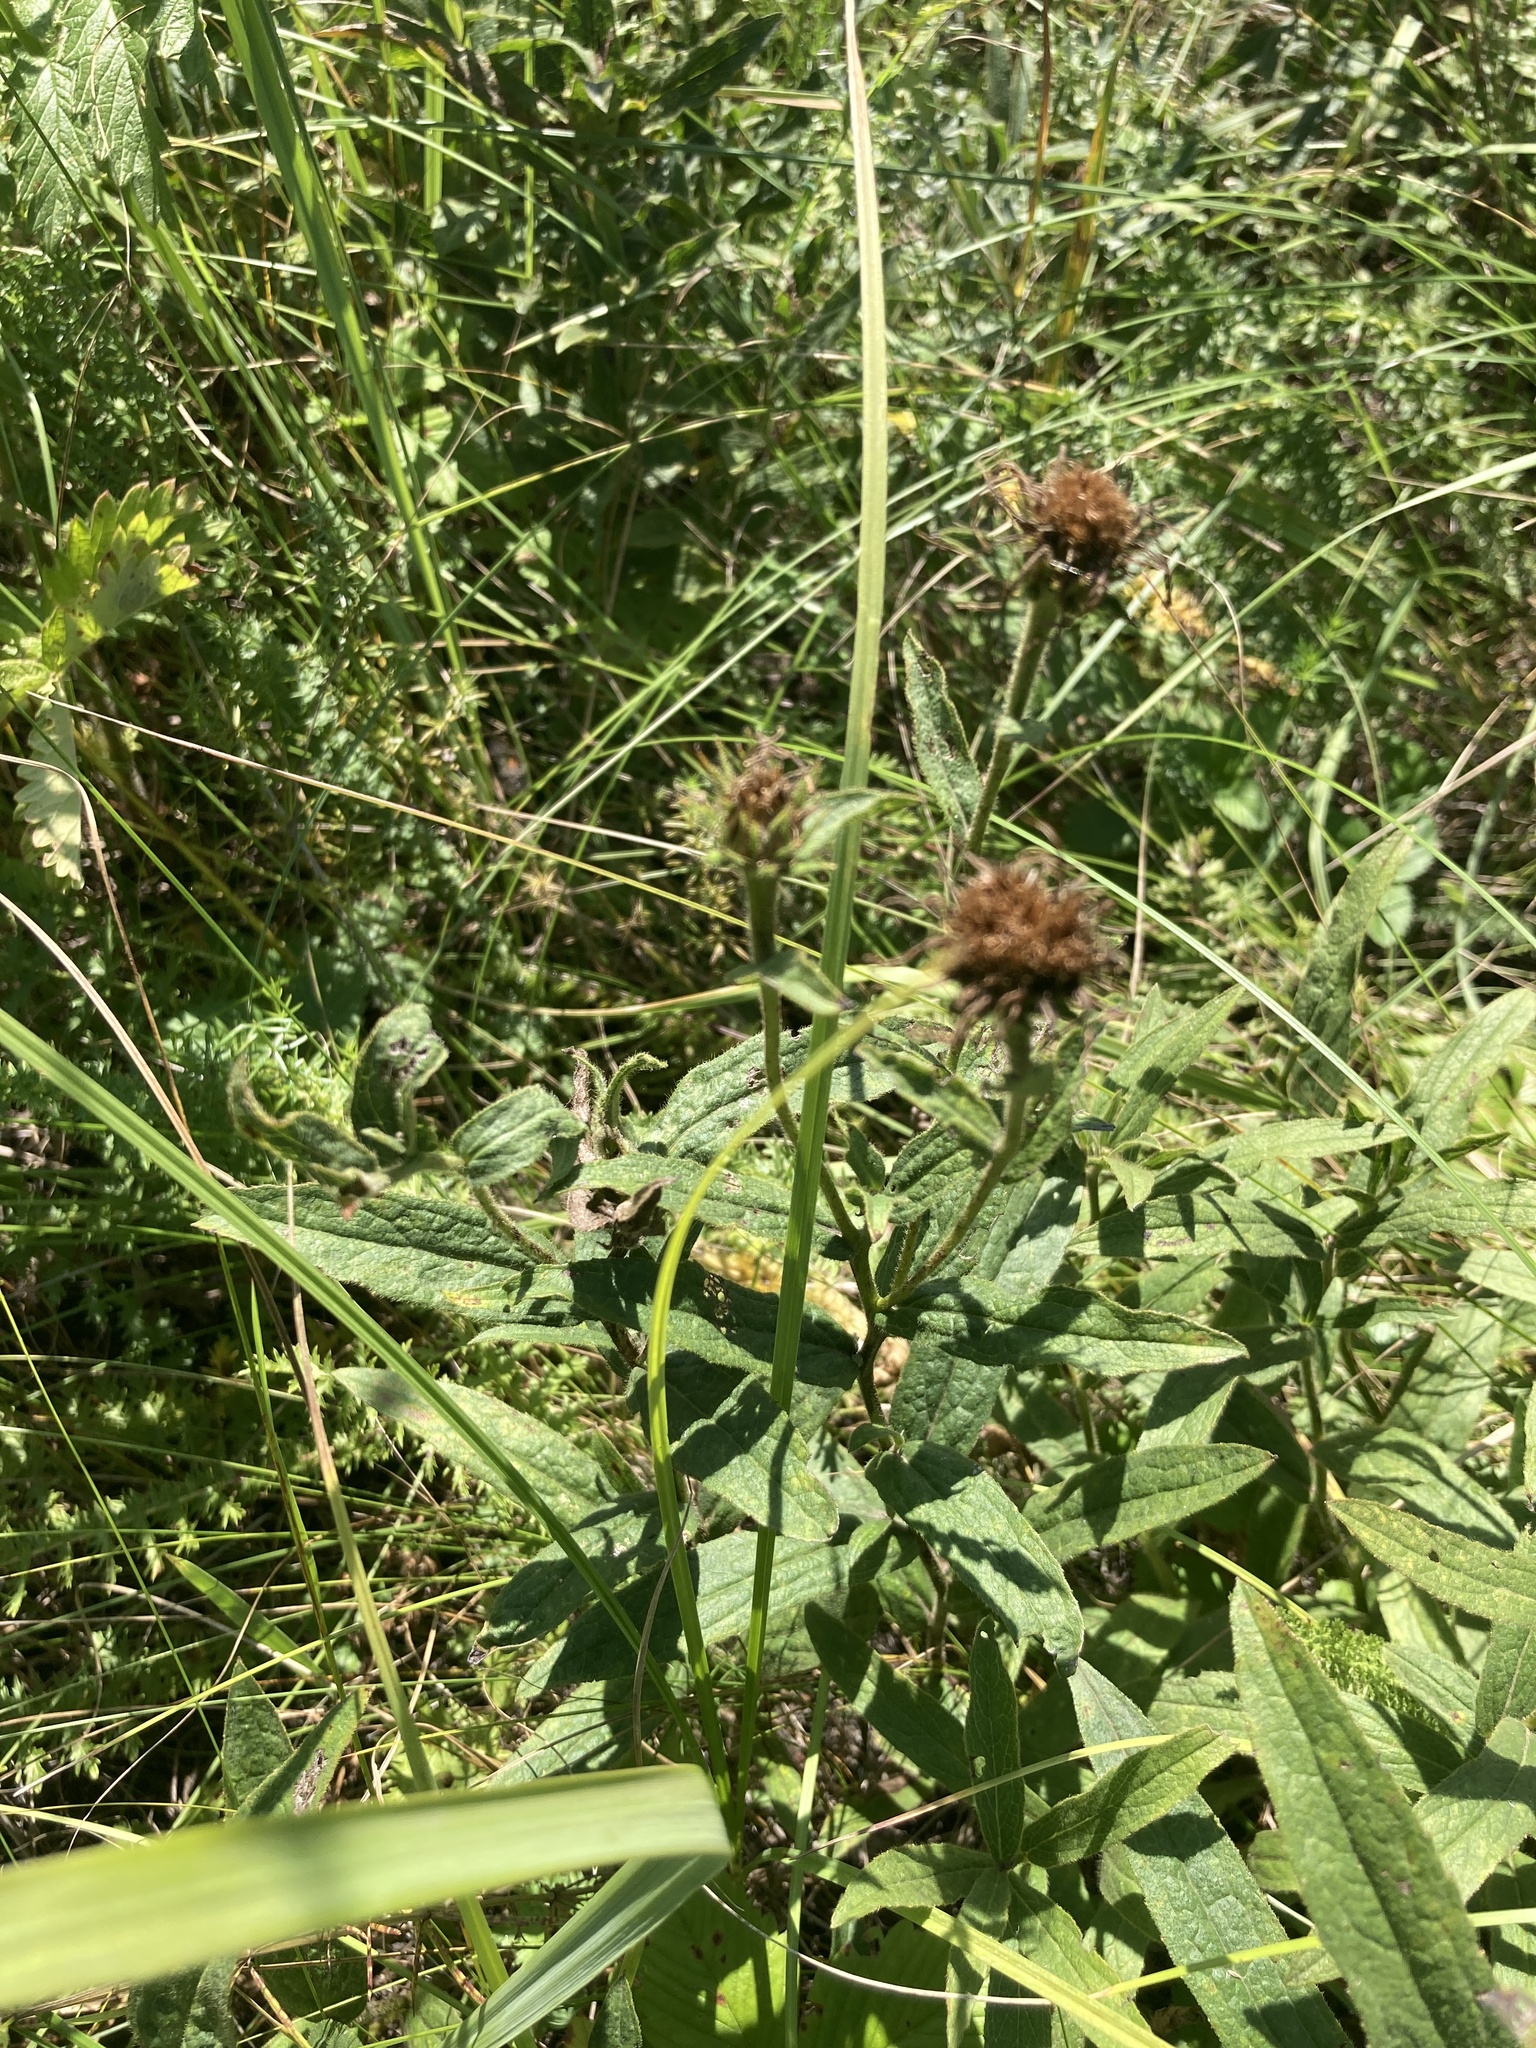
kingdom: Plantae
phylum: Tracheophyta
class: Magnoliopsida
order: Asterales
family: Asteraceae
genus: Pentanema
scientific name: Pentanema hirtum
